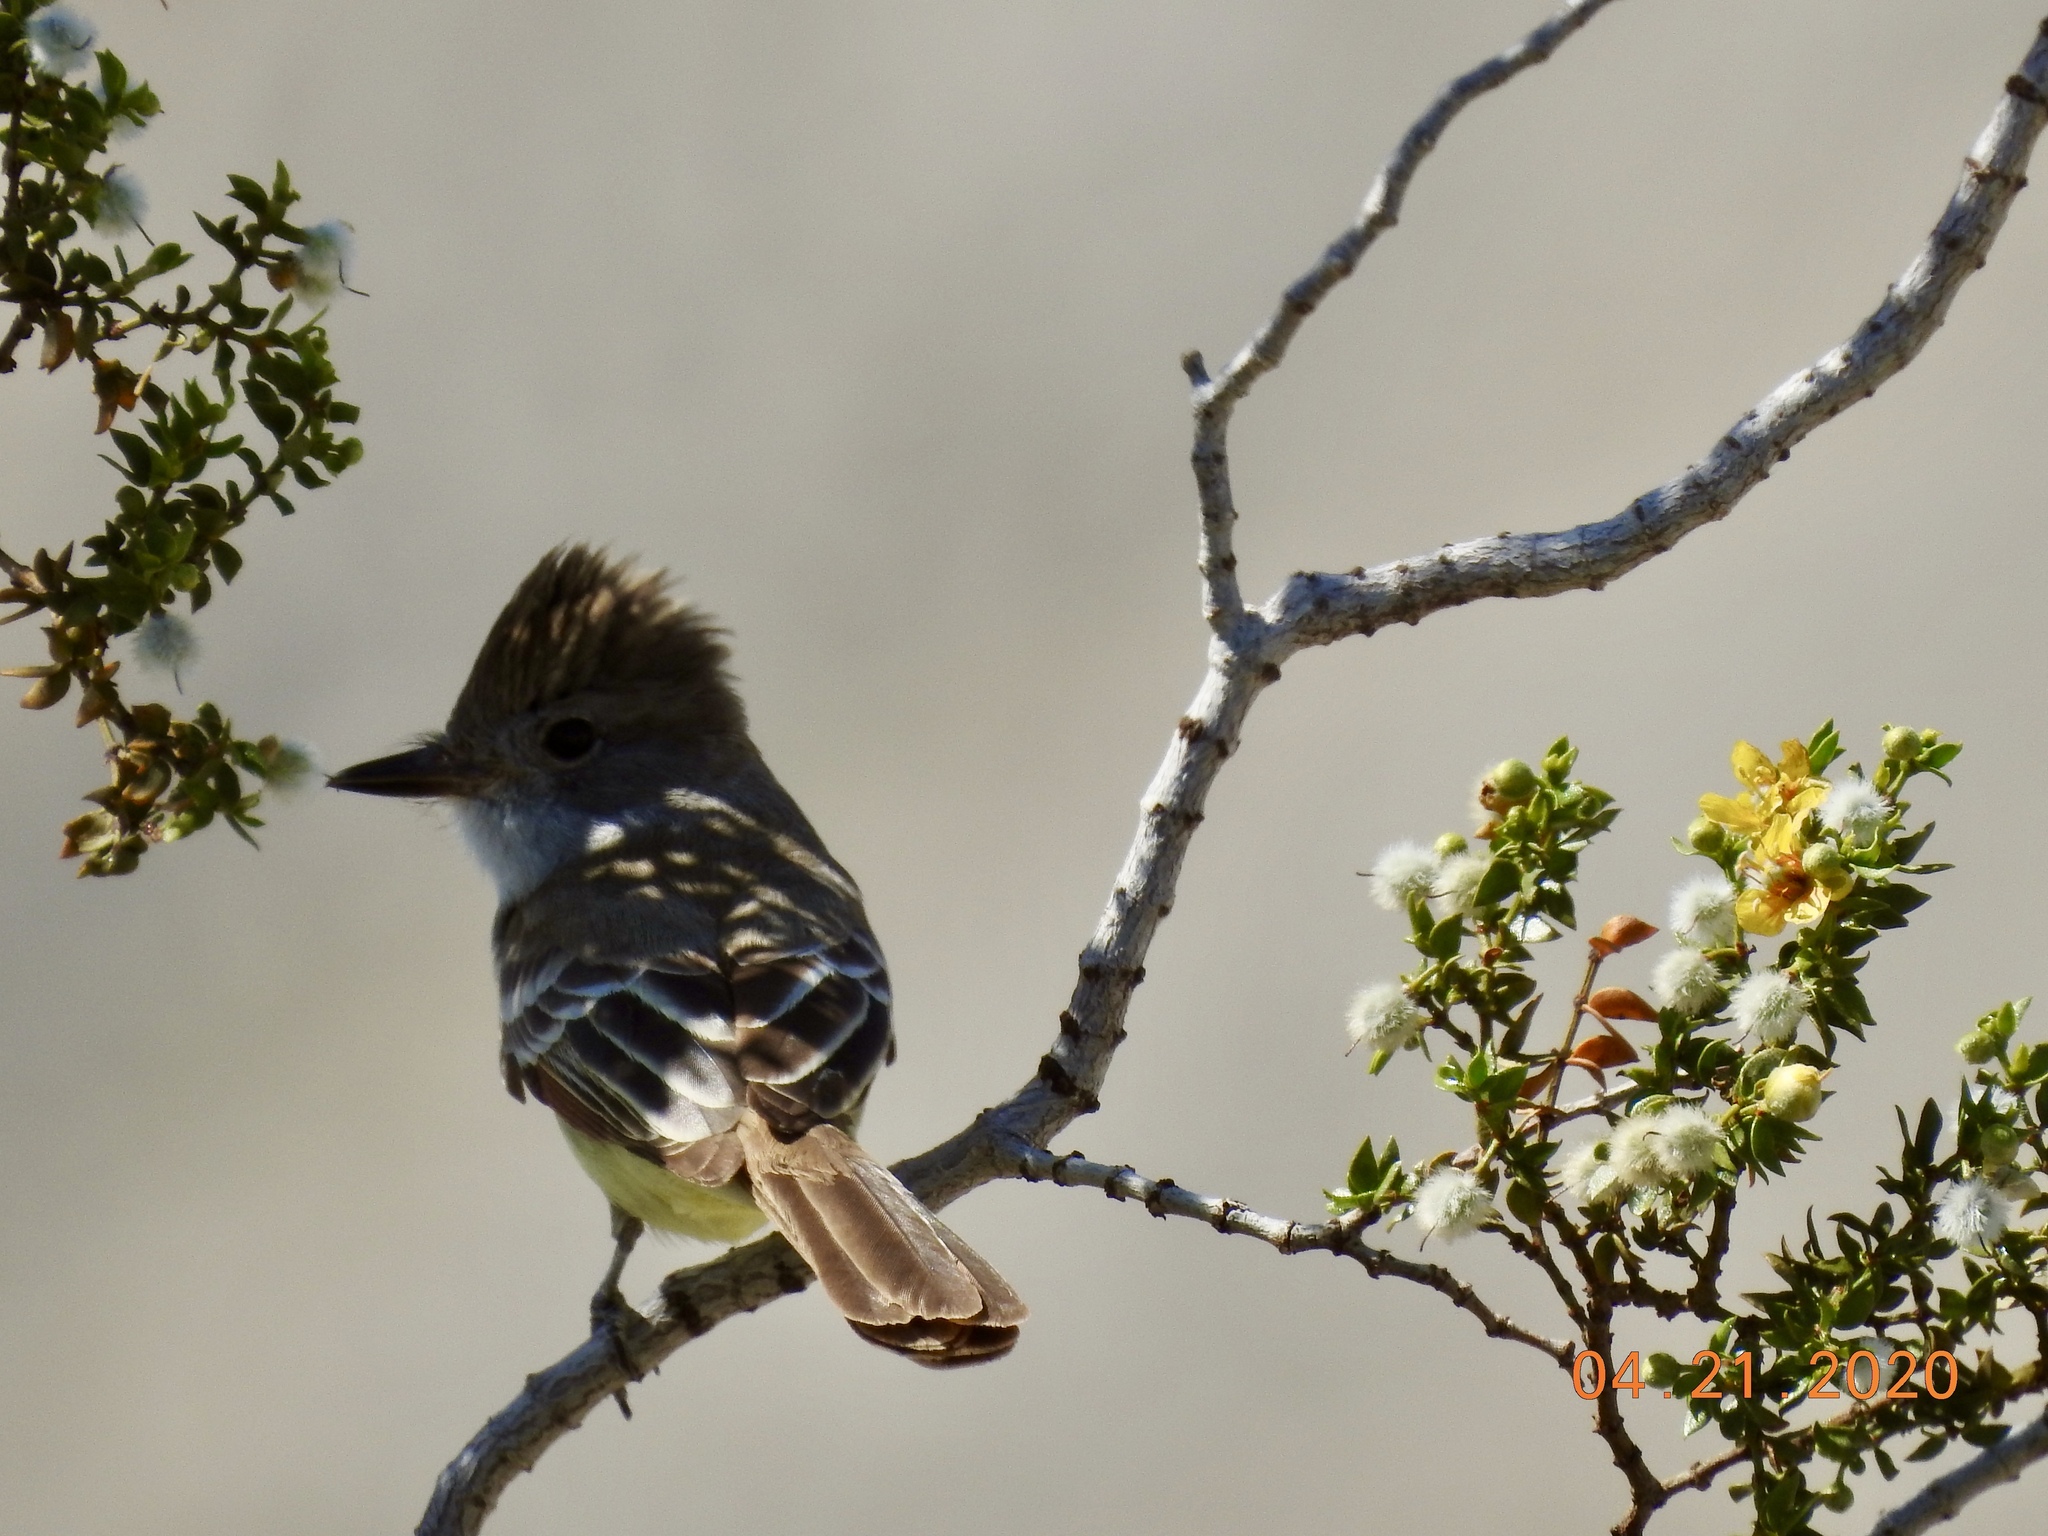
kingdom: Animalia
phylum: Chordata
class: Aves
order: Passeriformes
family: Tyrannidae
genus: Myiarchus
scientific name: Myiarchus cinerascens
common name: Ash-throated flycatcher
